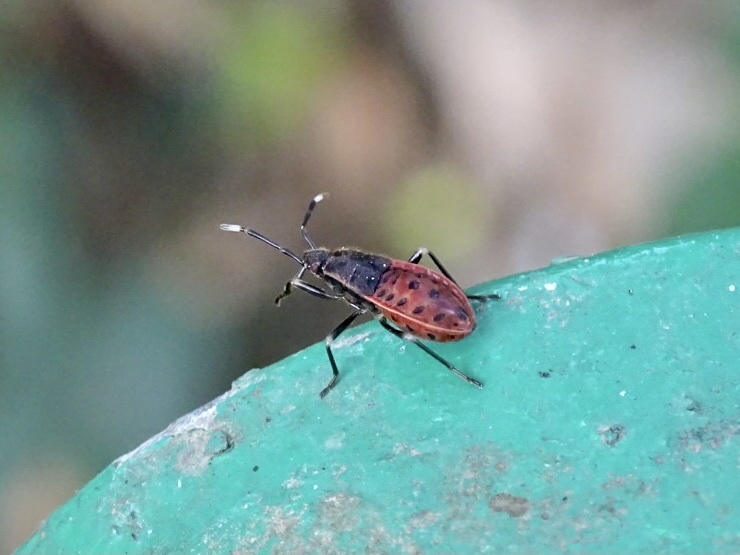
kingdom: Animalia
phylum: Arthropoda
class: Insecta
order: Hemiptera
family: Largidae
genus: Physopelta
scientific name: Physopelta gutta
